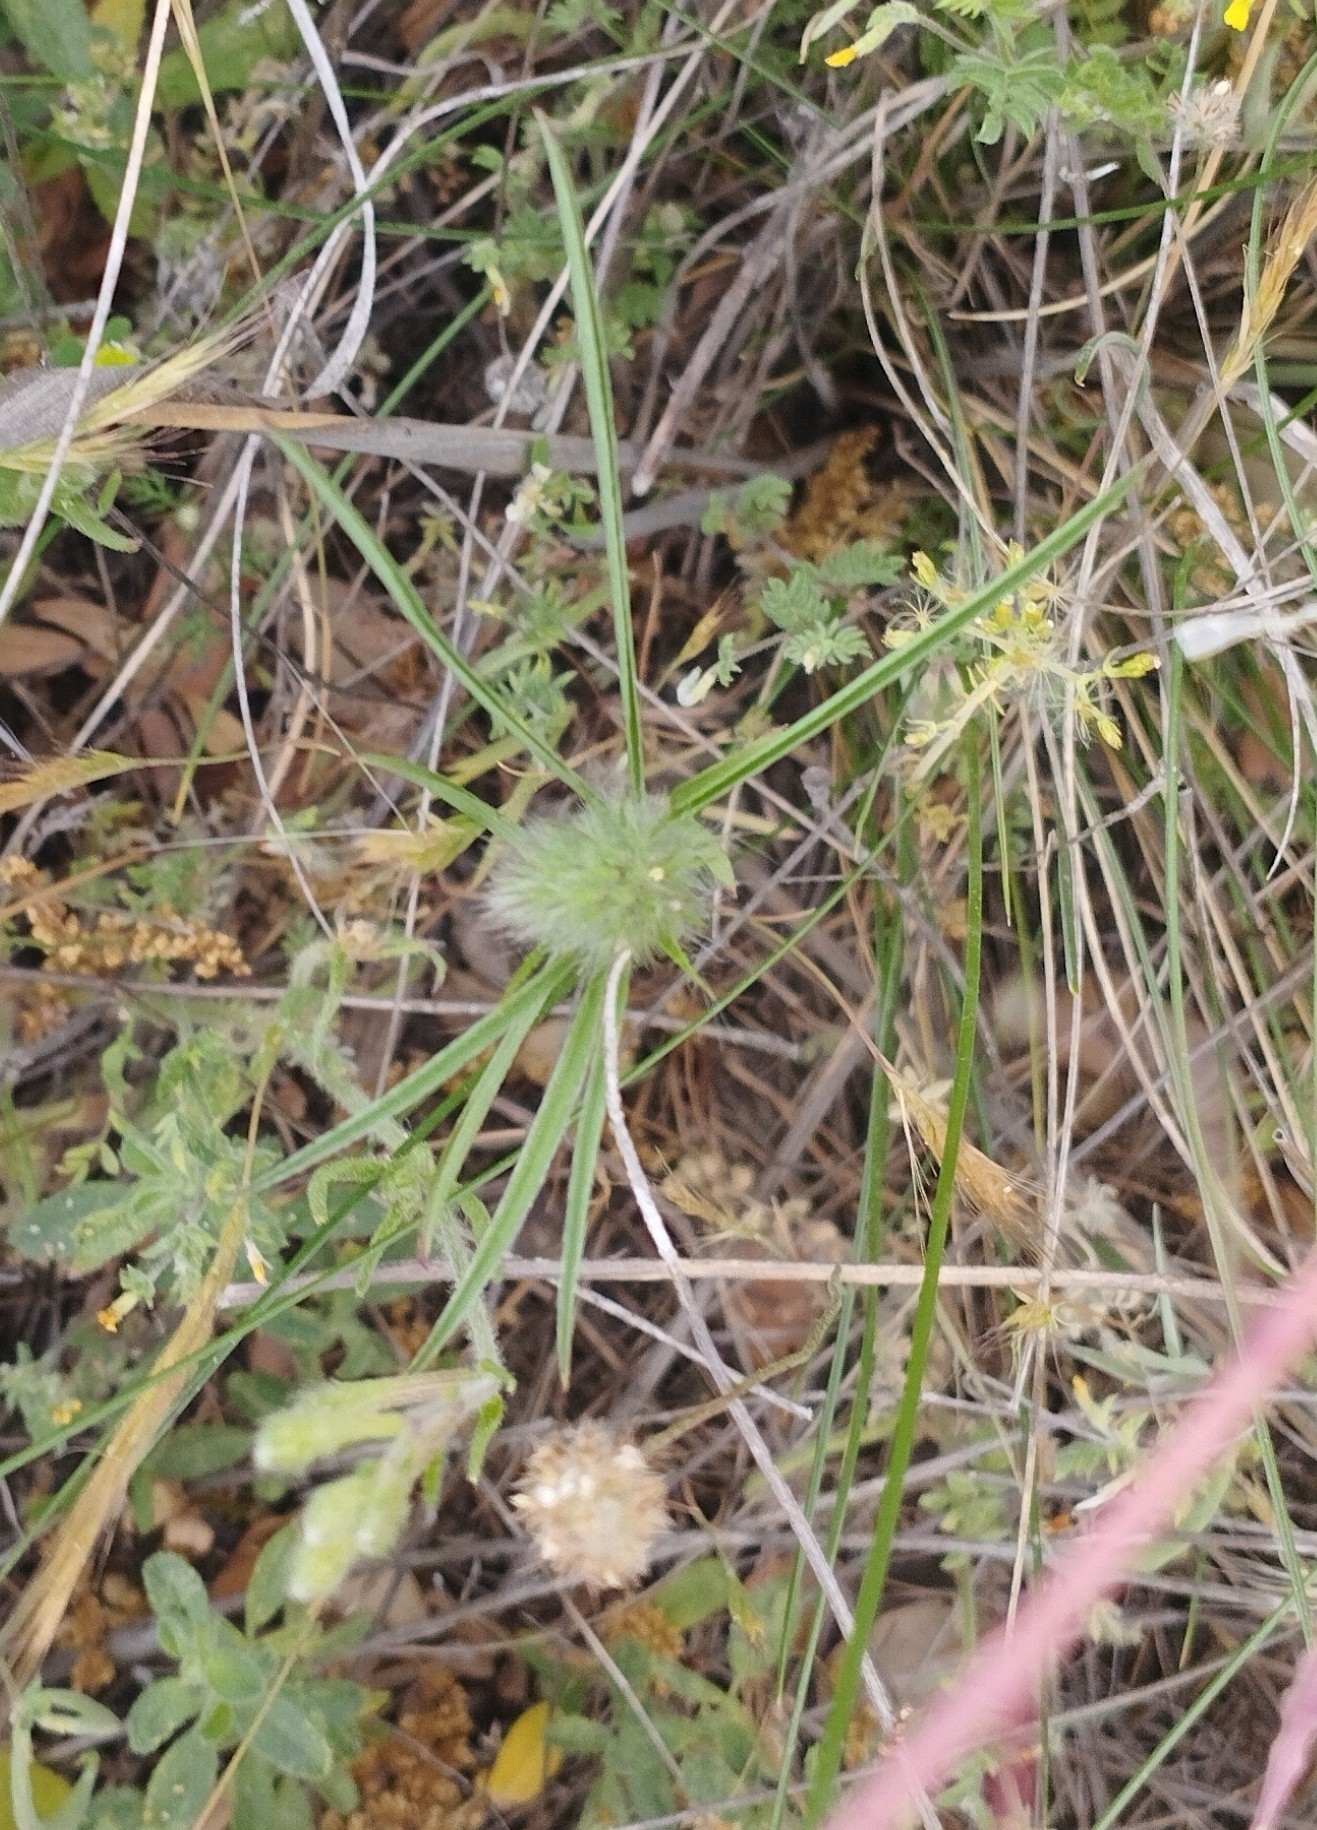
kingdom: Plantae
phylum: Tracheophyta
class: Magnoliopsida
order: Fabales
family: Fabaceae
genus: Trifolium
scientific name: Trifolium angustifolium
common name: Narrow clover
